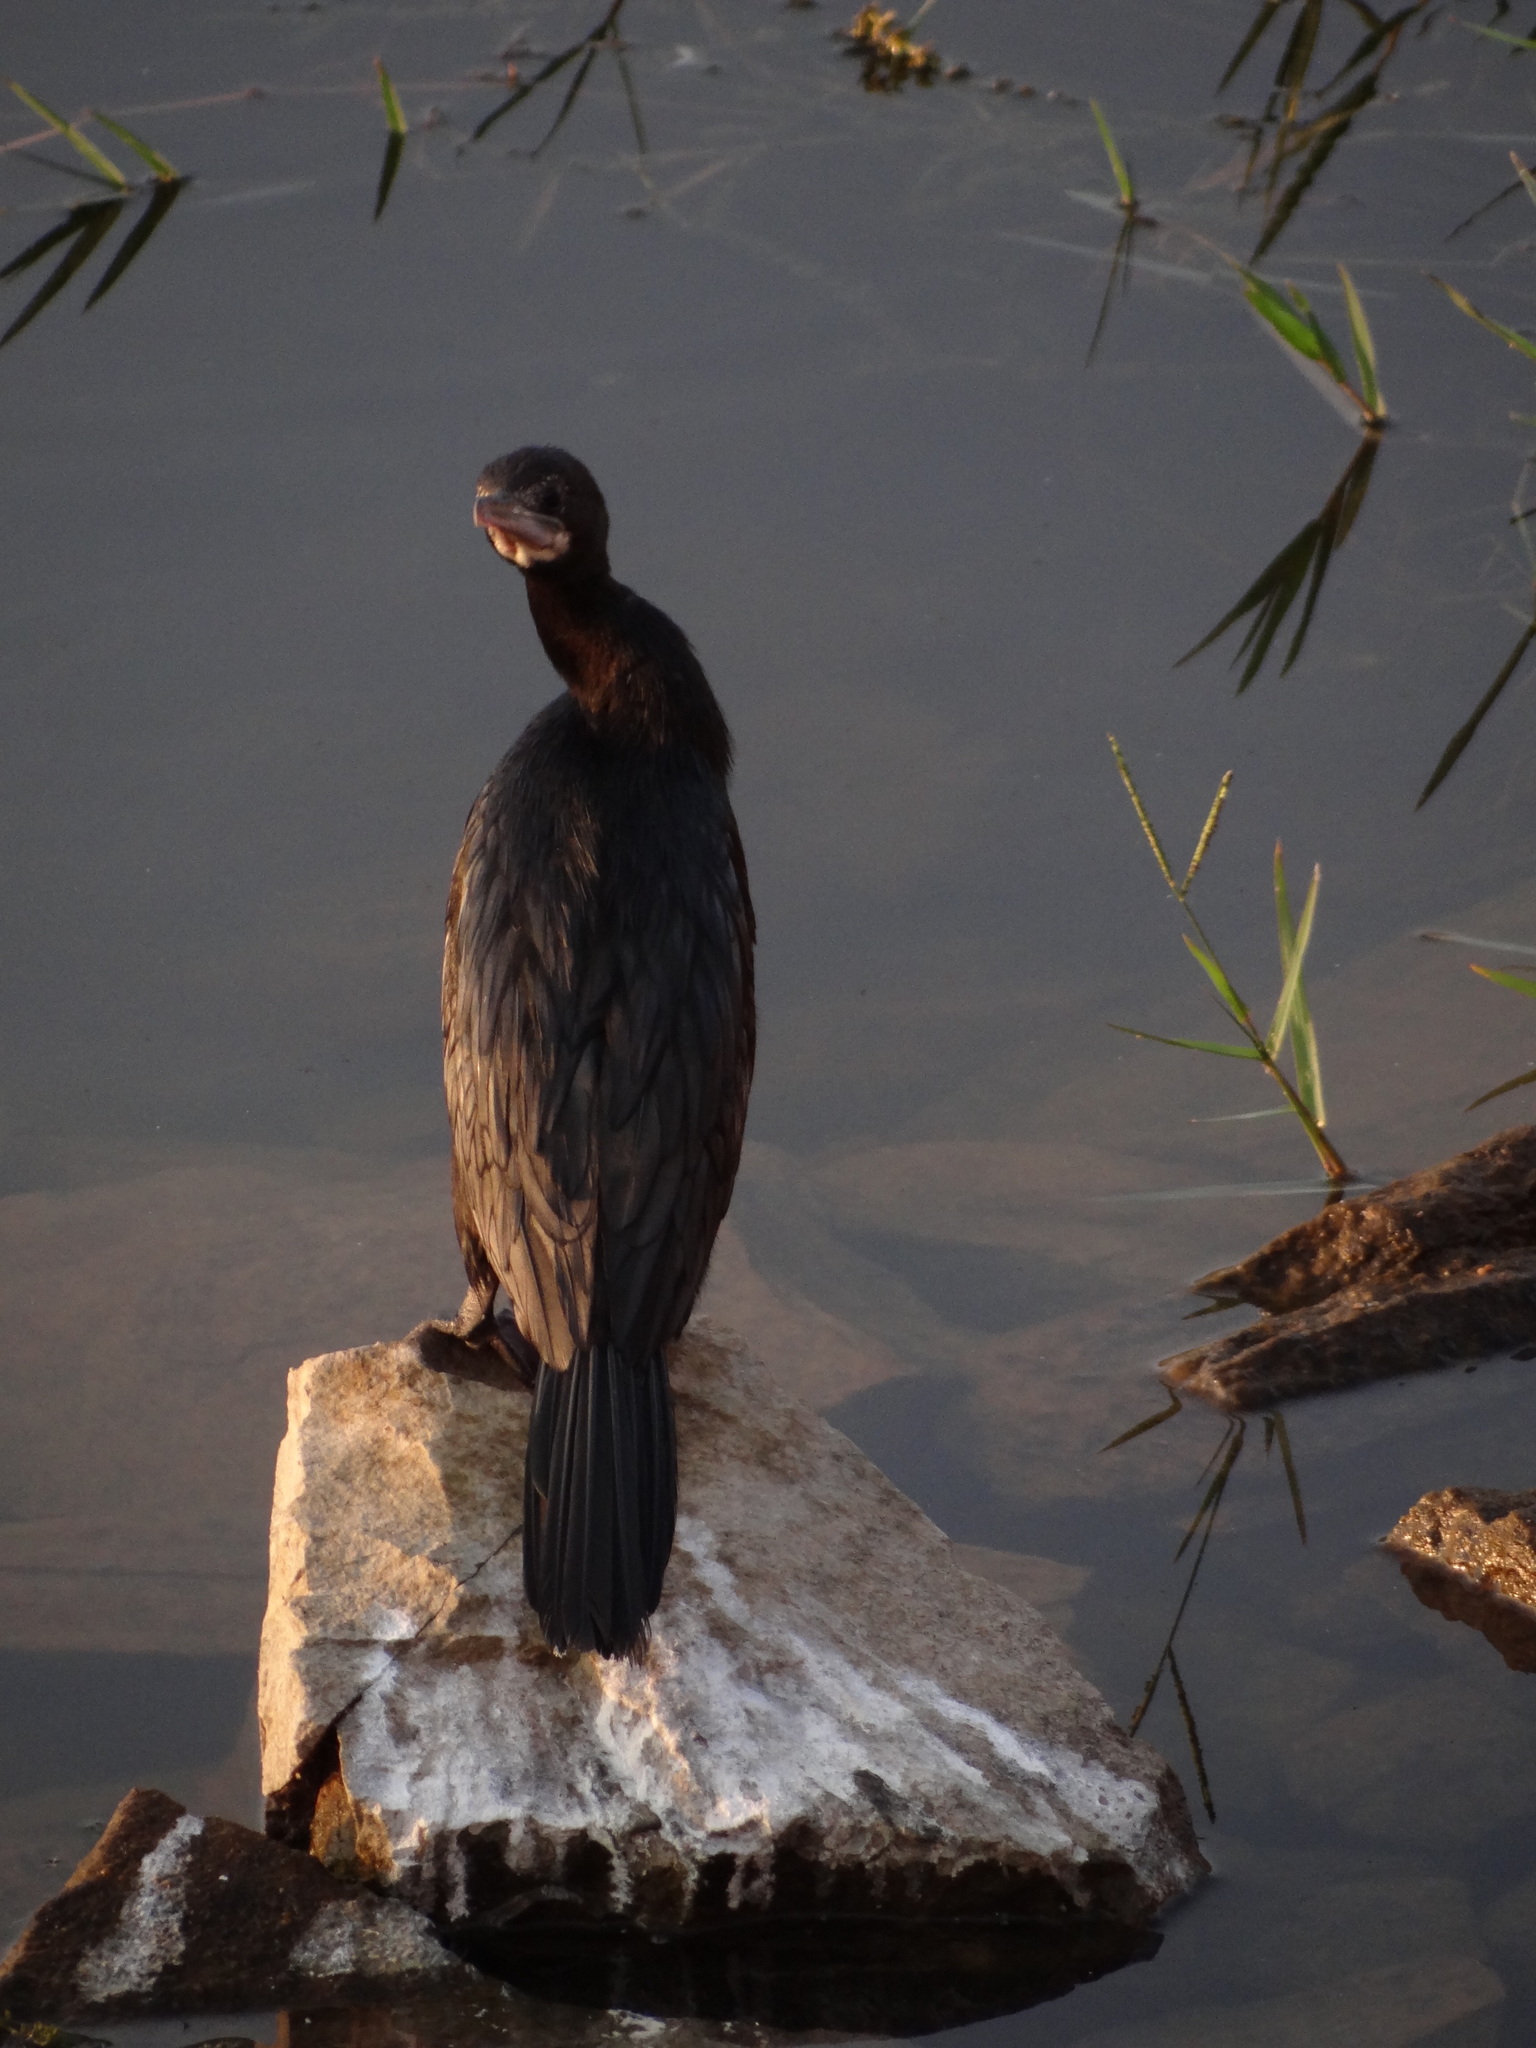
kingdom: Animalia
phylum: Chordata
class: Aves
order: Suliformes
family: Phalacrocoracidae
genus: Microcarbo
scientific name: Microcarbo niger
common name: Little cormorant
